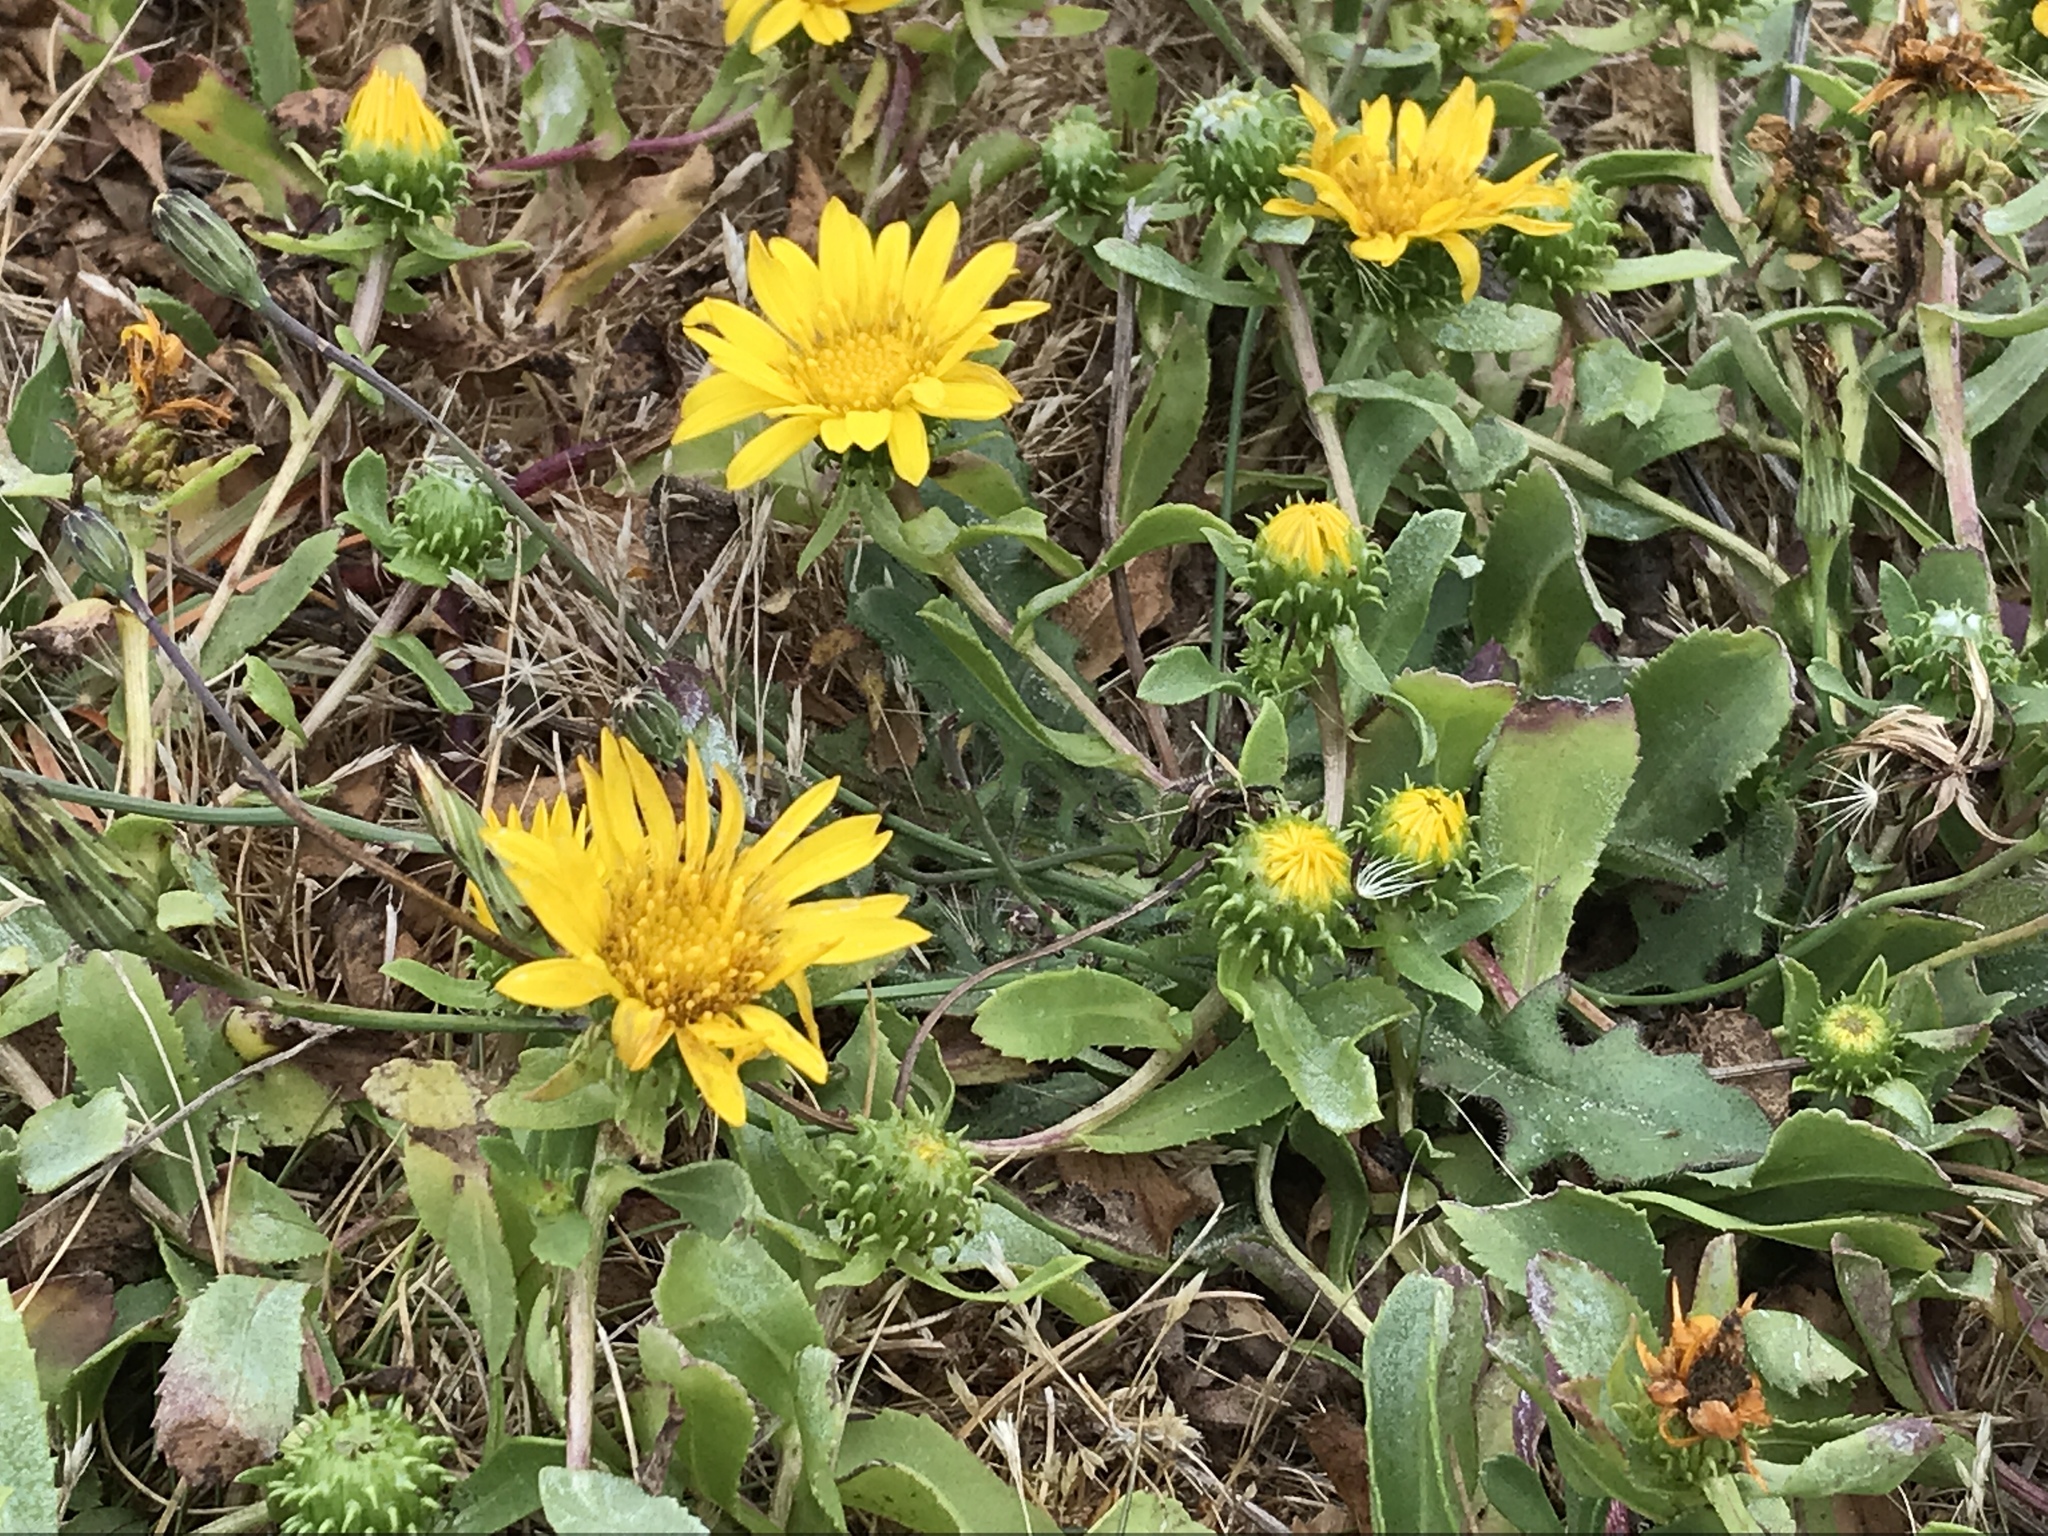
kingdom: Plantae
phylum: Tracheophyta
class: Magnoliopsida
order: Asterales
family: Asteraceae
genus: Grindelia
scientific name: Grindelia hirsutula
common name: Hairy gumweed
